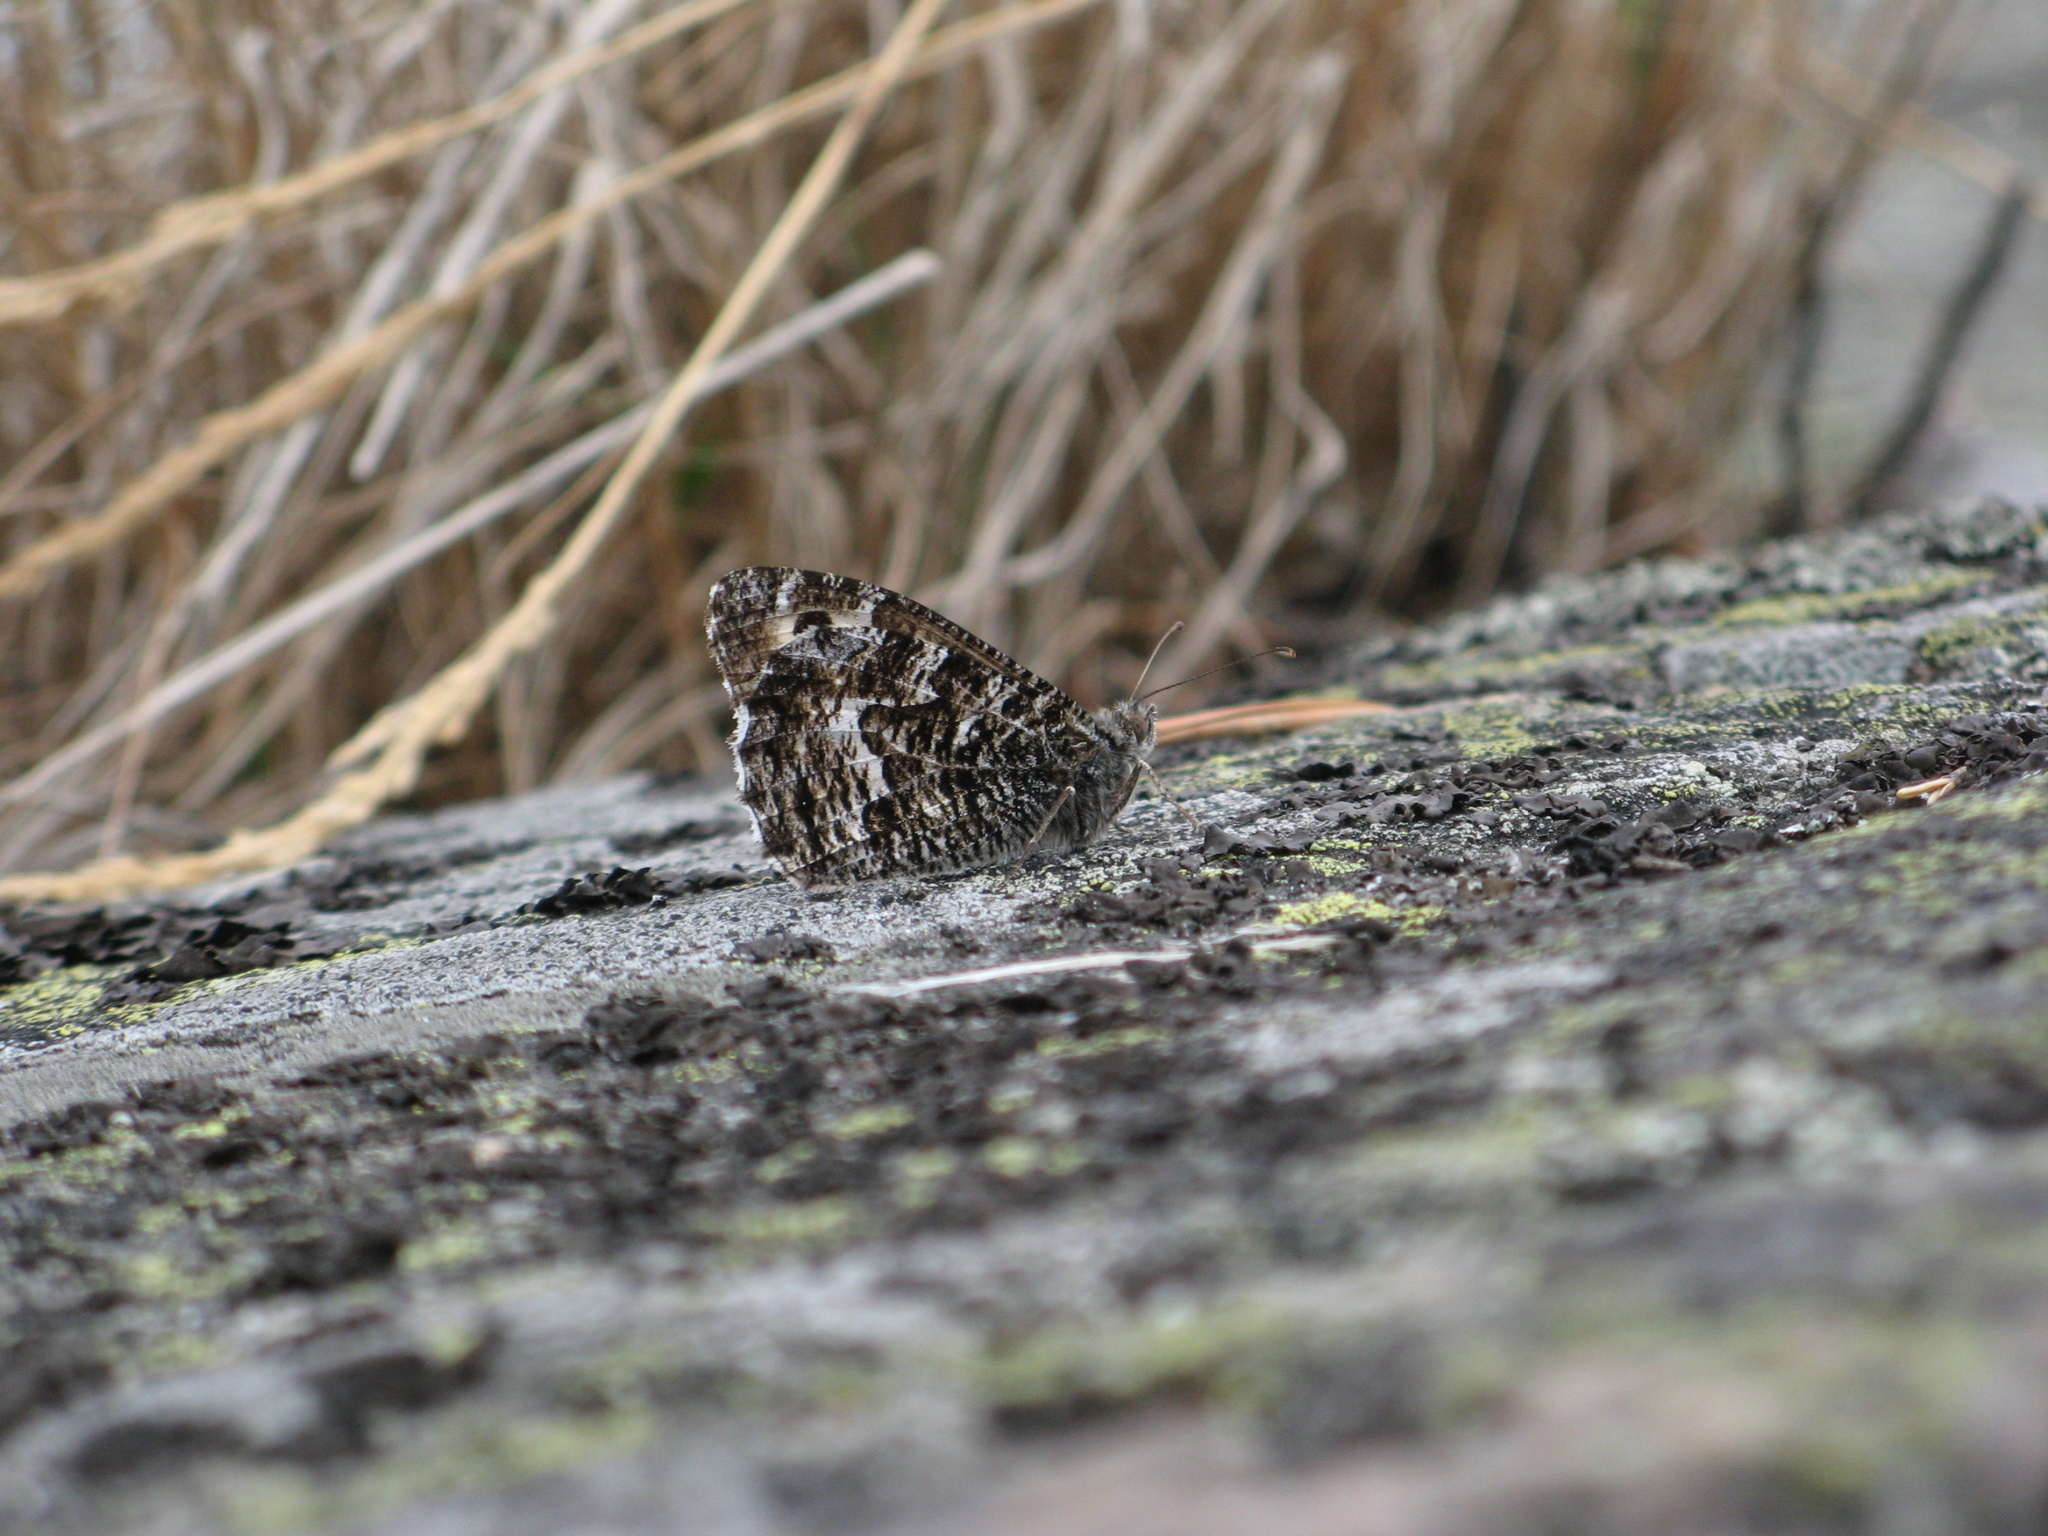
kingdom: Animalia
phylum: Arthropoda
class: Insecta
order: Lepidoptera
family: Nymphalidae
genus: Hipparchia
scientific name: Hipparchia semele
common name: Grayling
